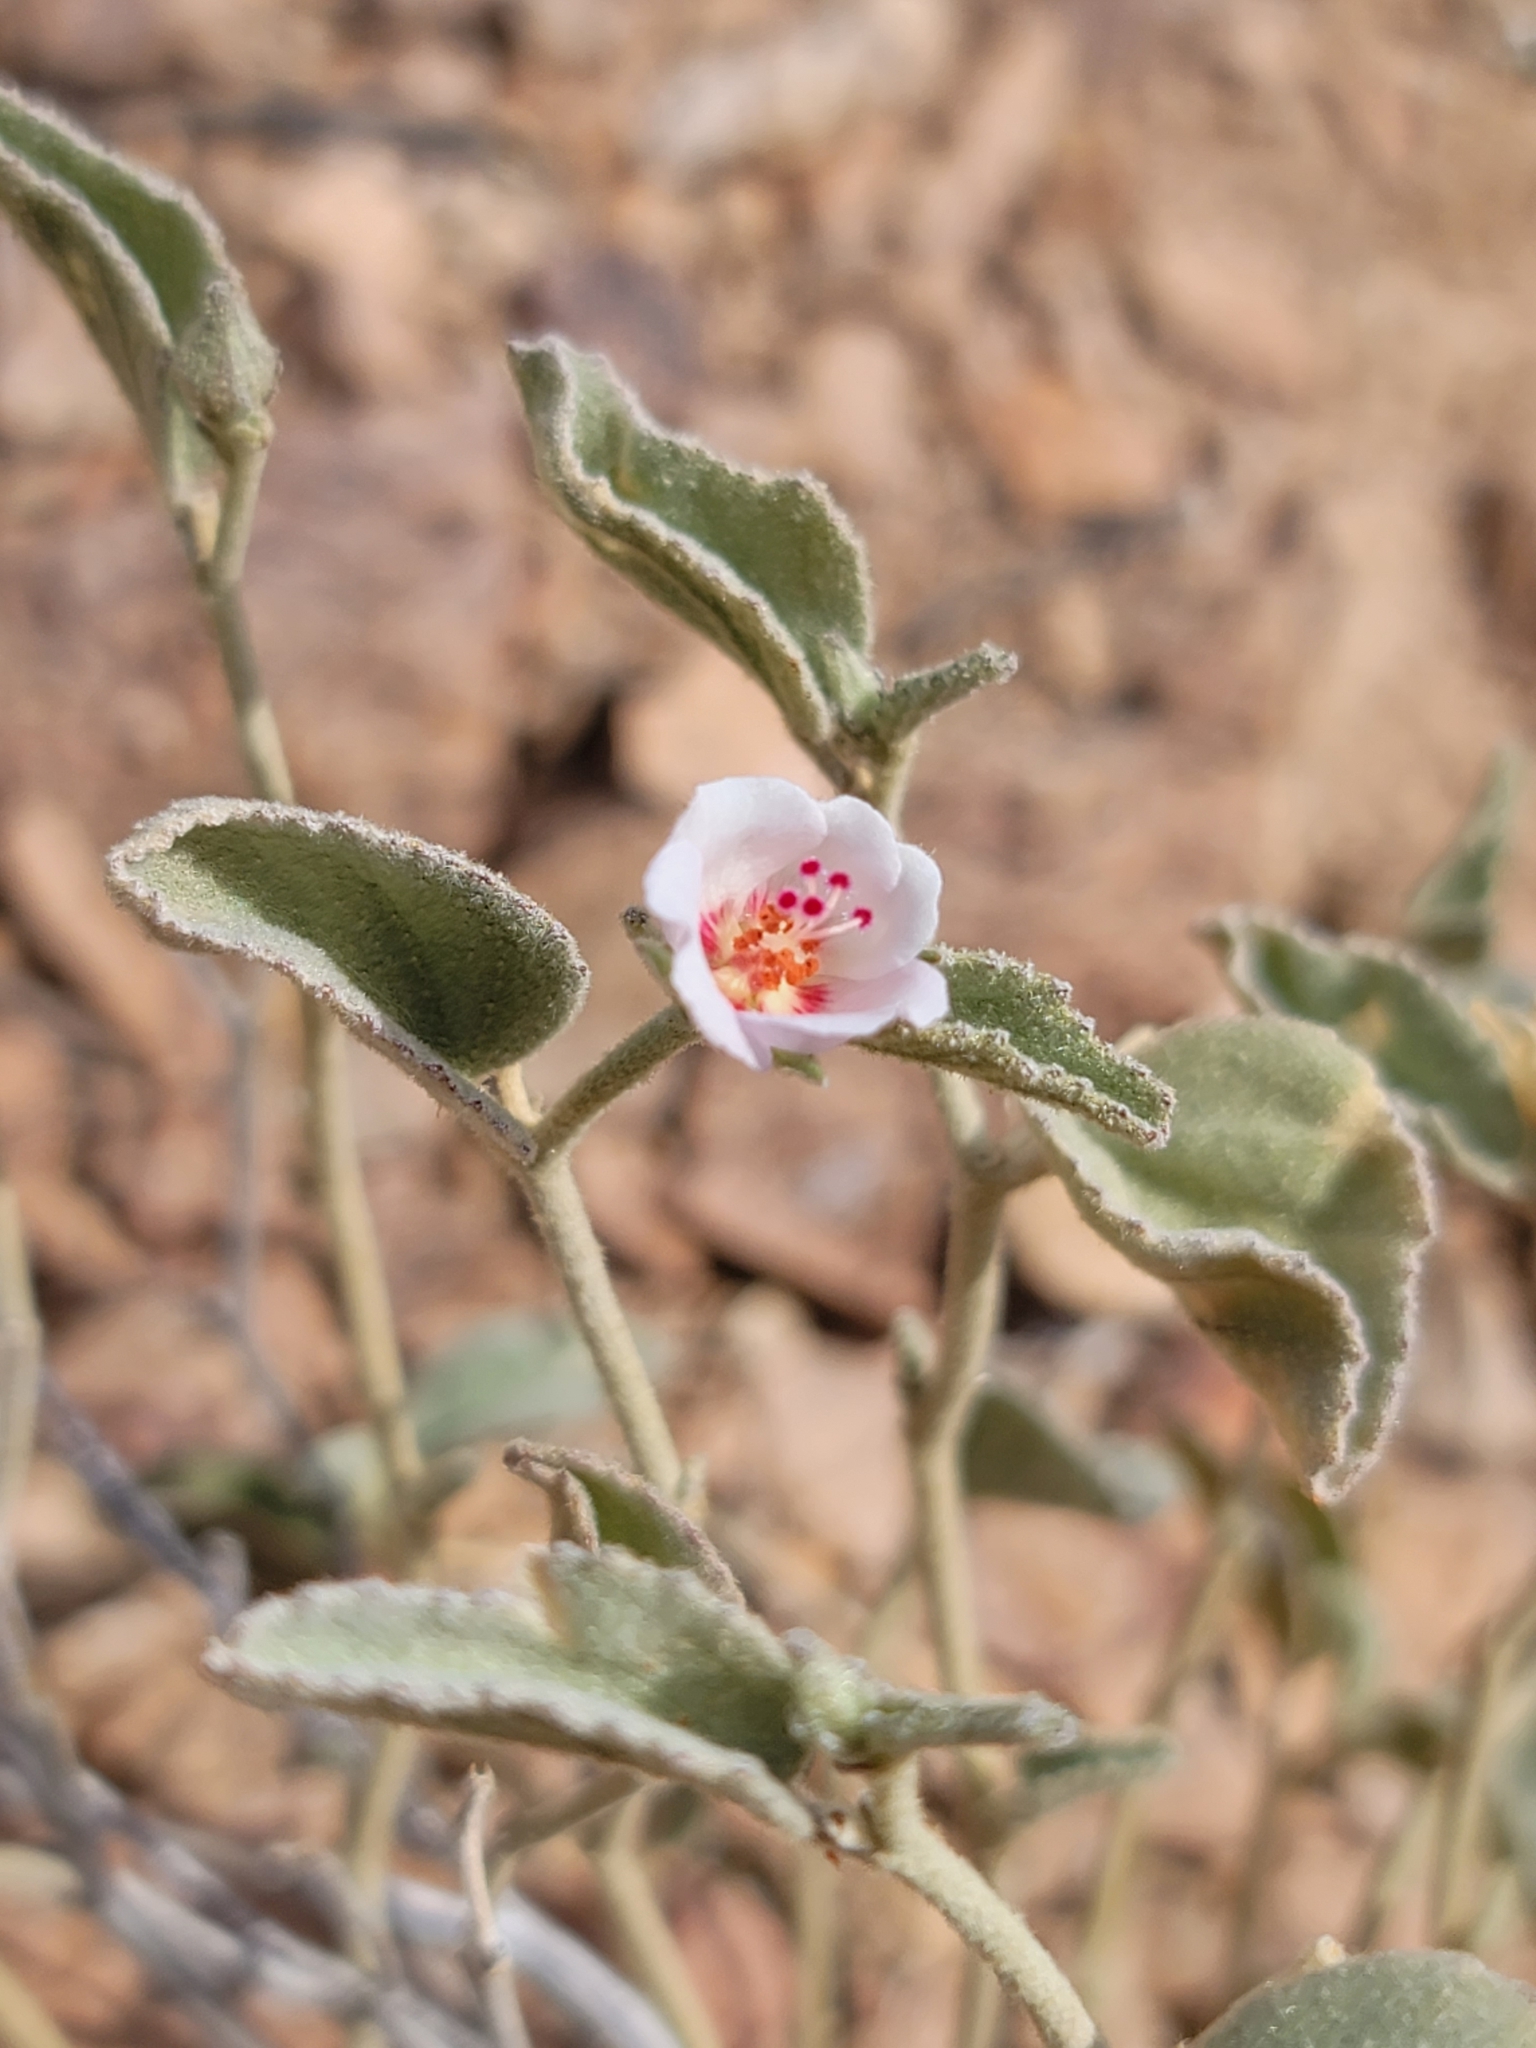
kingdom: Plantae
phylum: Tracheophyta
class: Magnoliopsida
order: Malvales
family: Malvaceae
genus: Hibiscus
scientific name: Hibiscus denudatus
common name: Paleface
